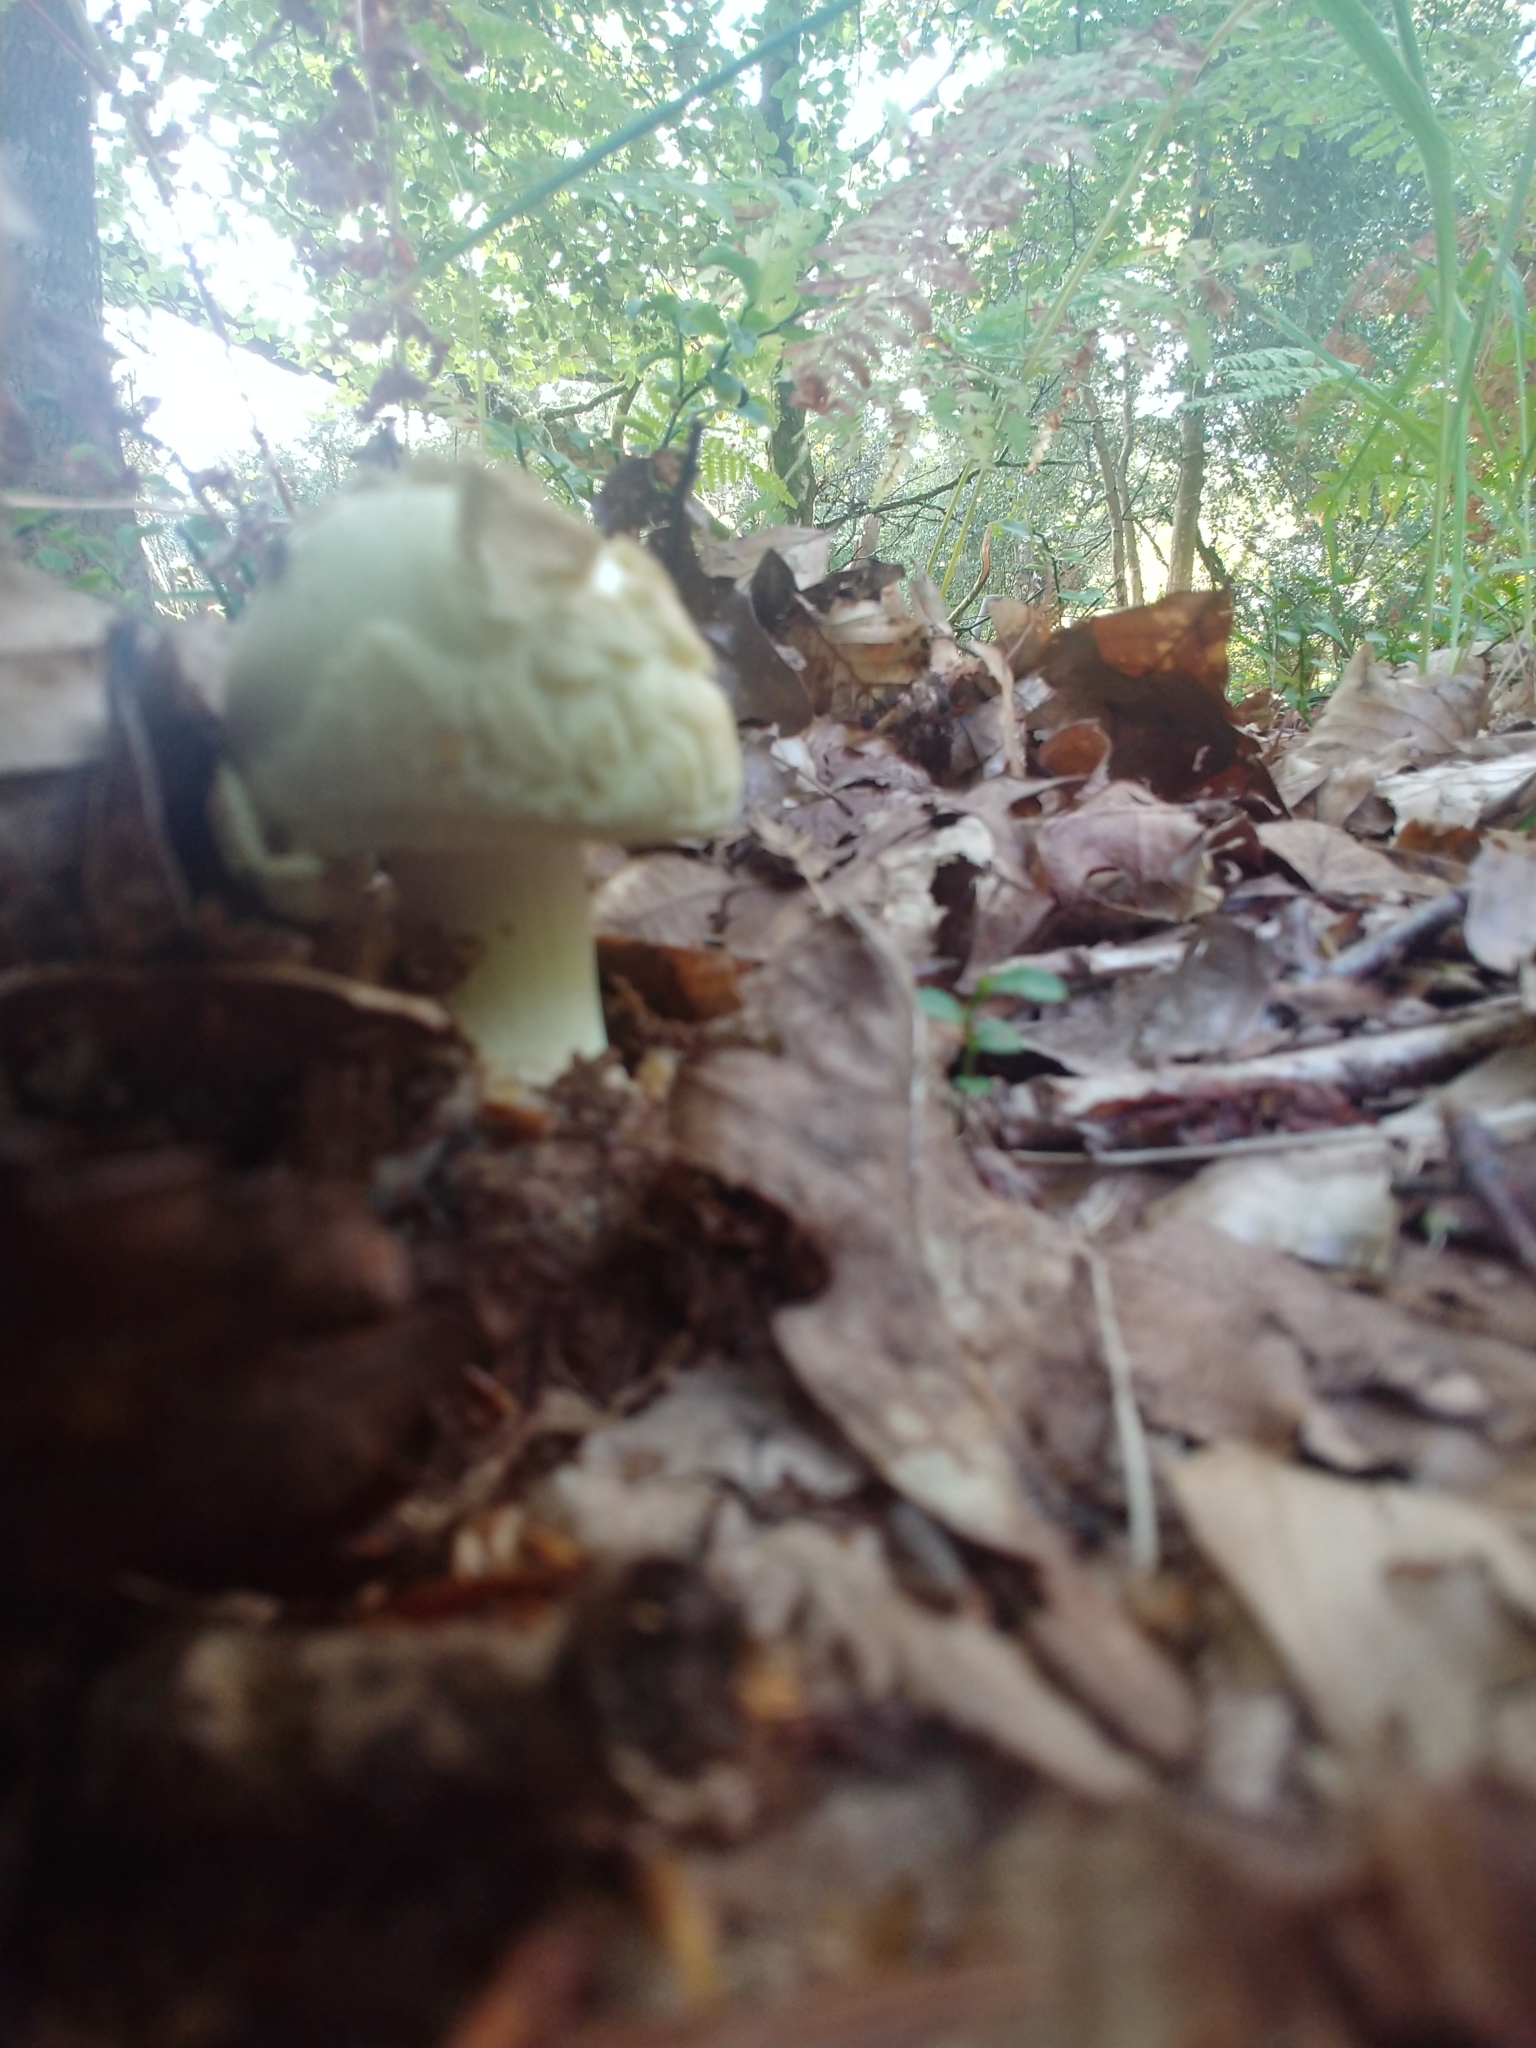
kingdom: Fungi
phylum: Basidiomycota
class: Agaricomycetes
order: Agaricales
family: Amanitaceae
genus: Amanita
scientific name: Amanita citrina
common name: False death-cap
